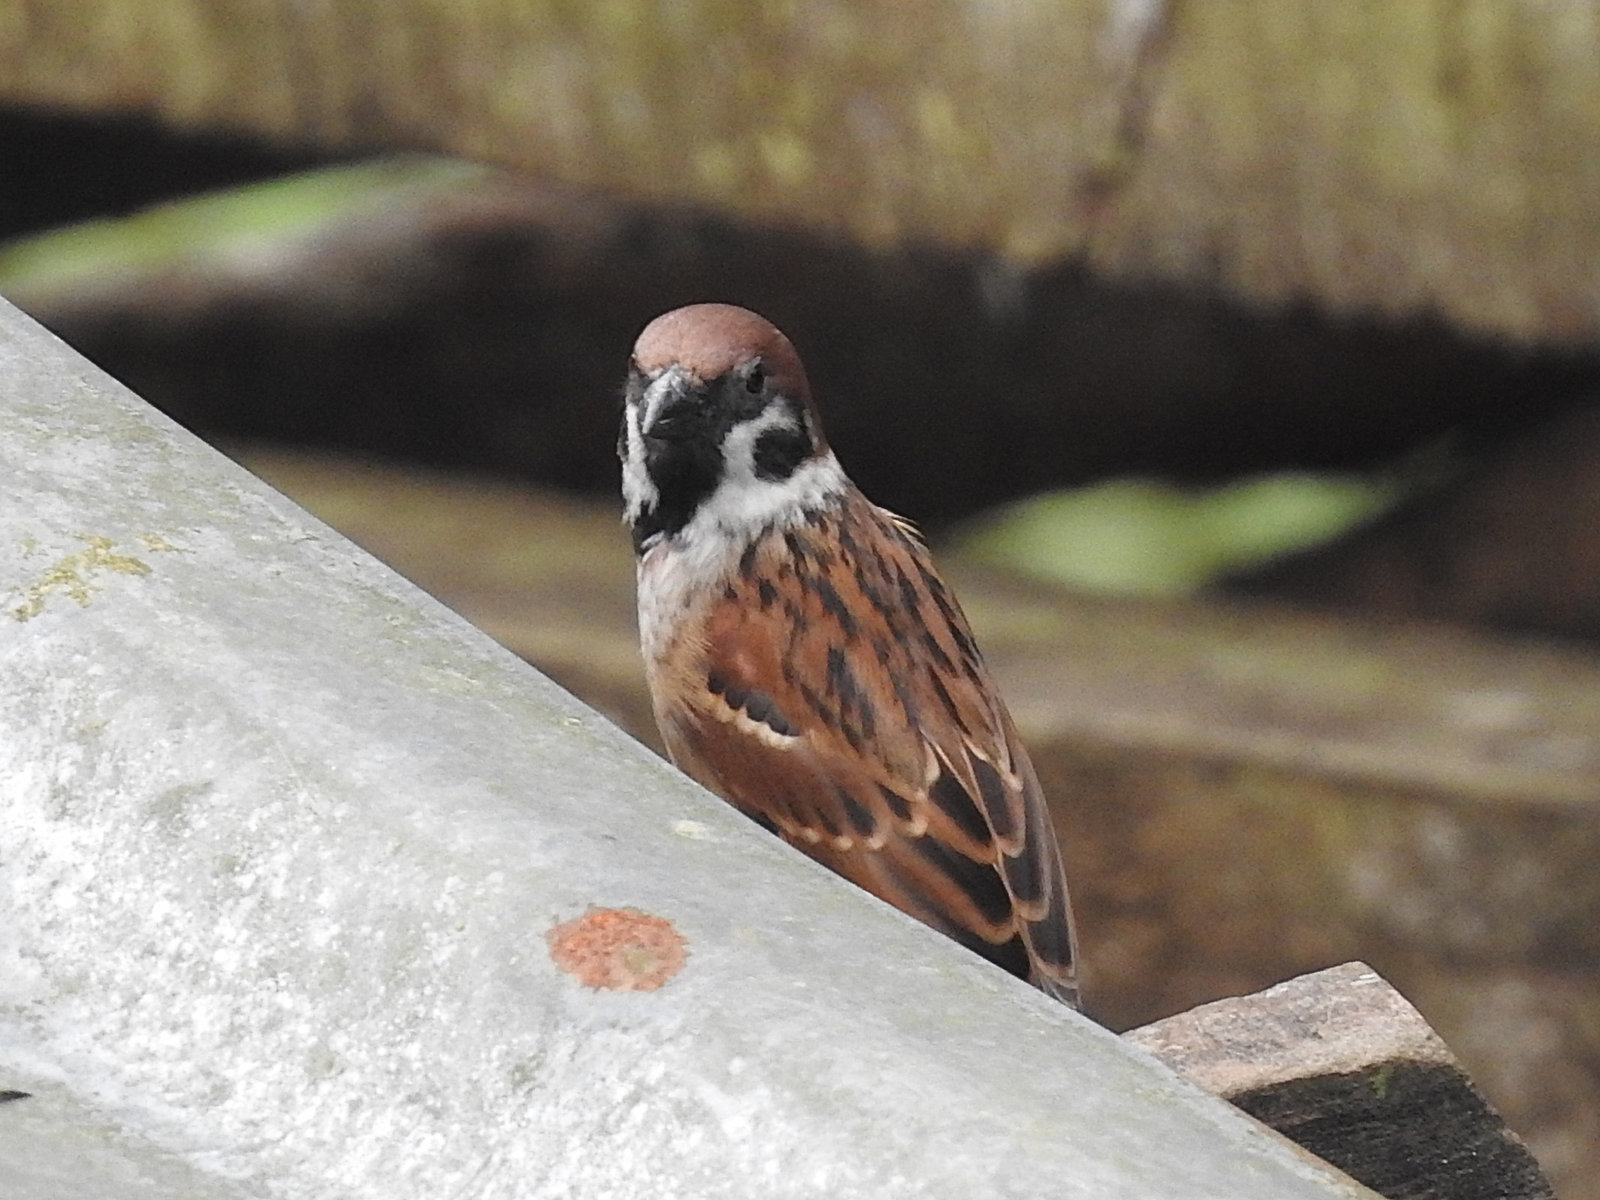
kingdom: Animalia
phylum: Chordata
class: Aves
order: Passeriformes
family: Passeridae
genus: Passer
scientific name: Passer montanus
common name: Eurasian tree sparrow
